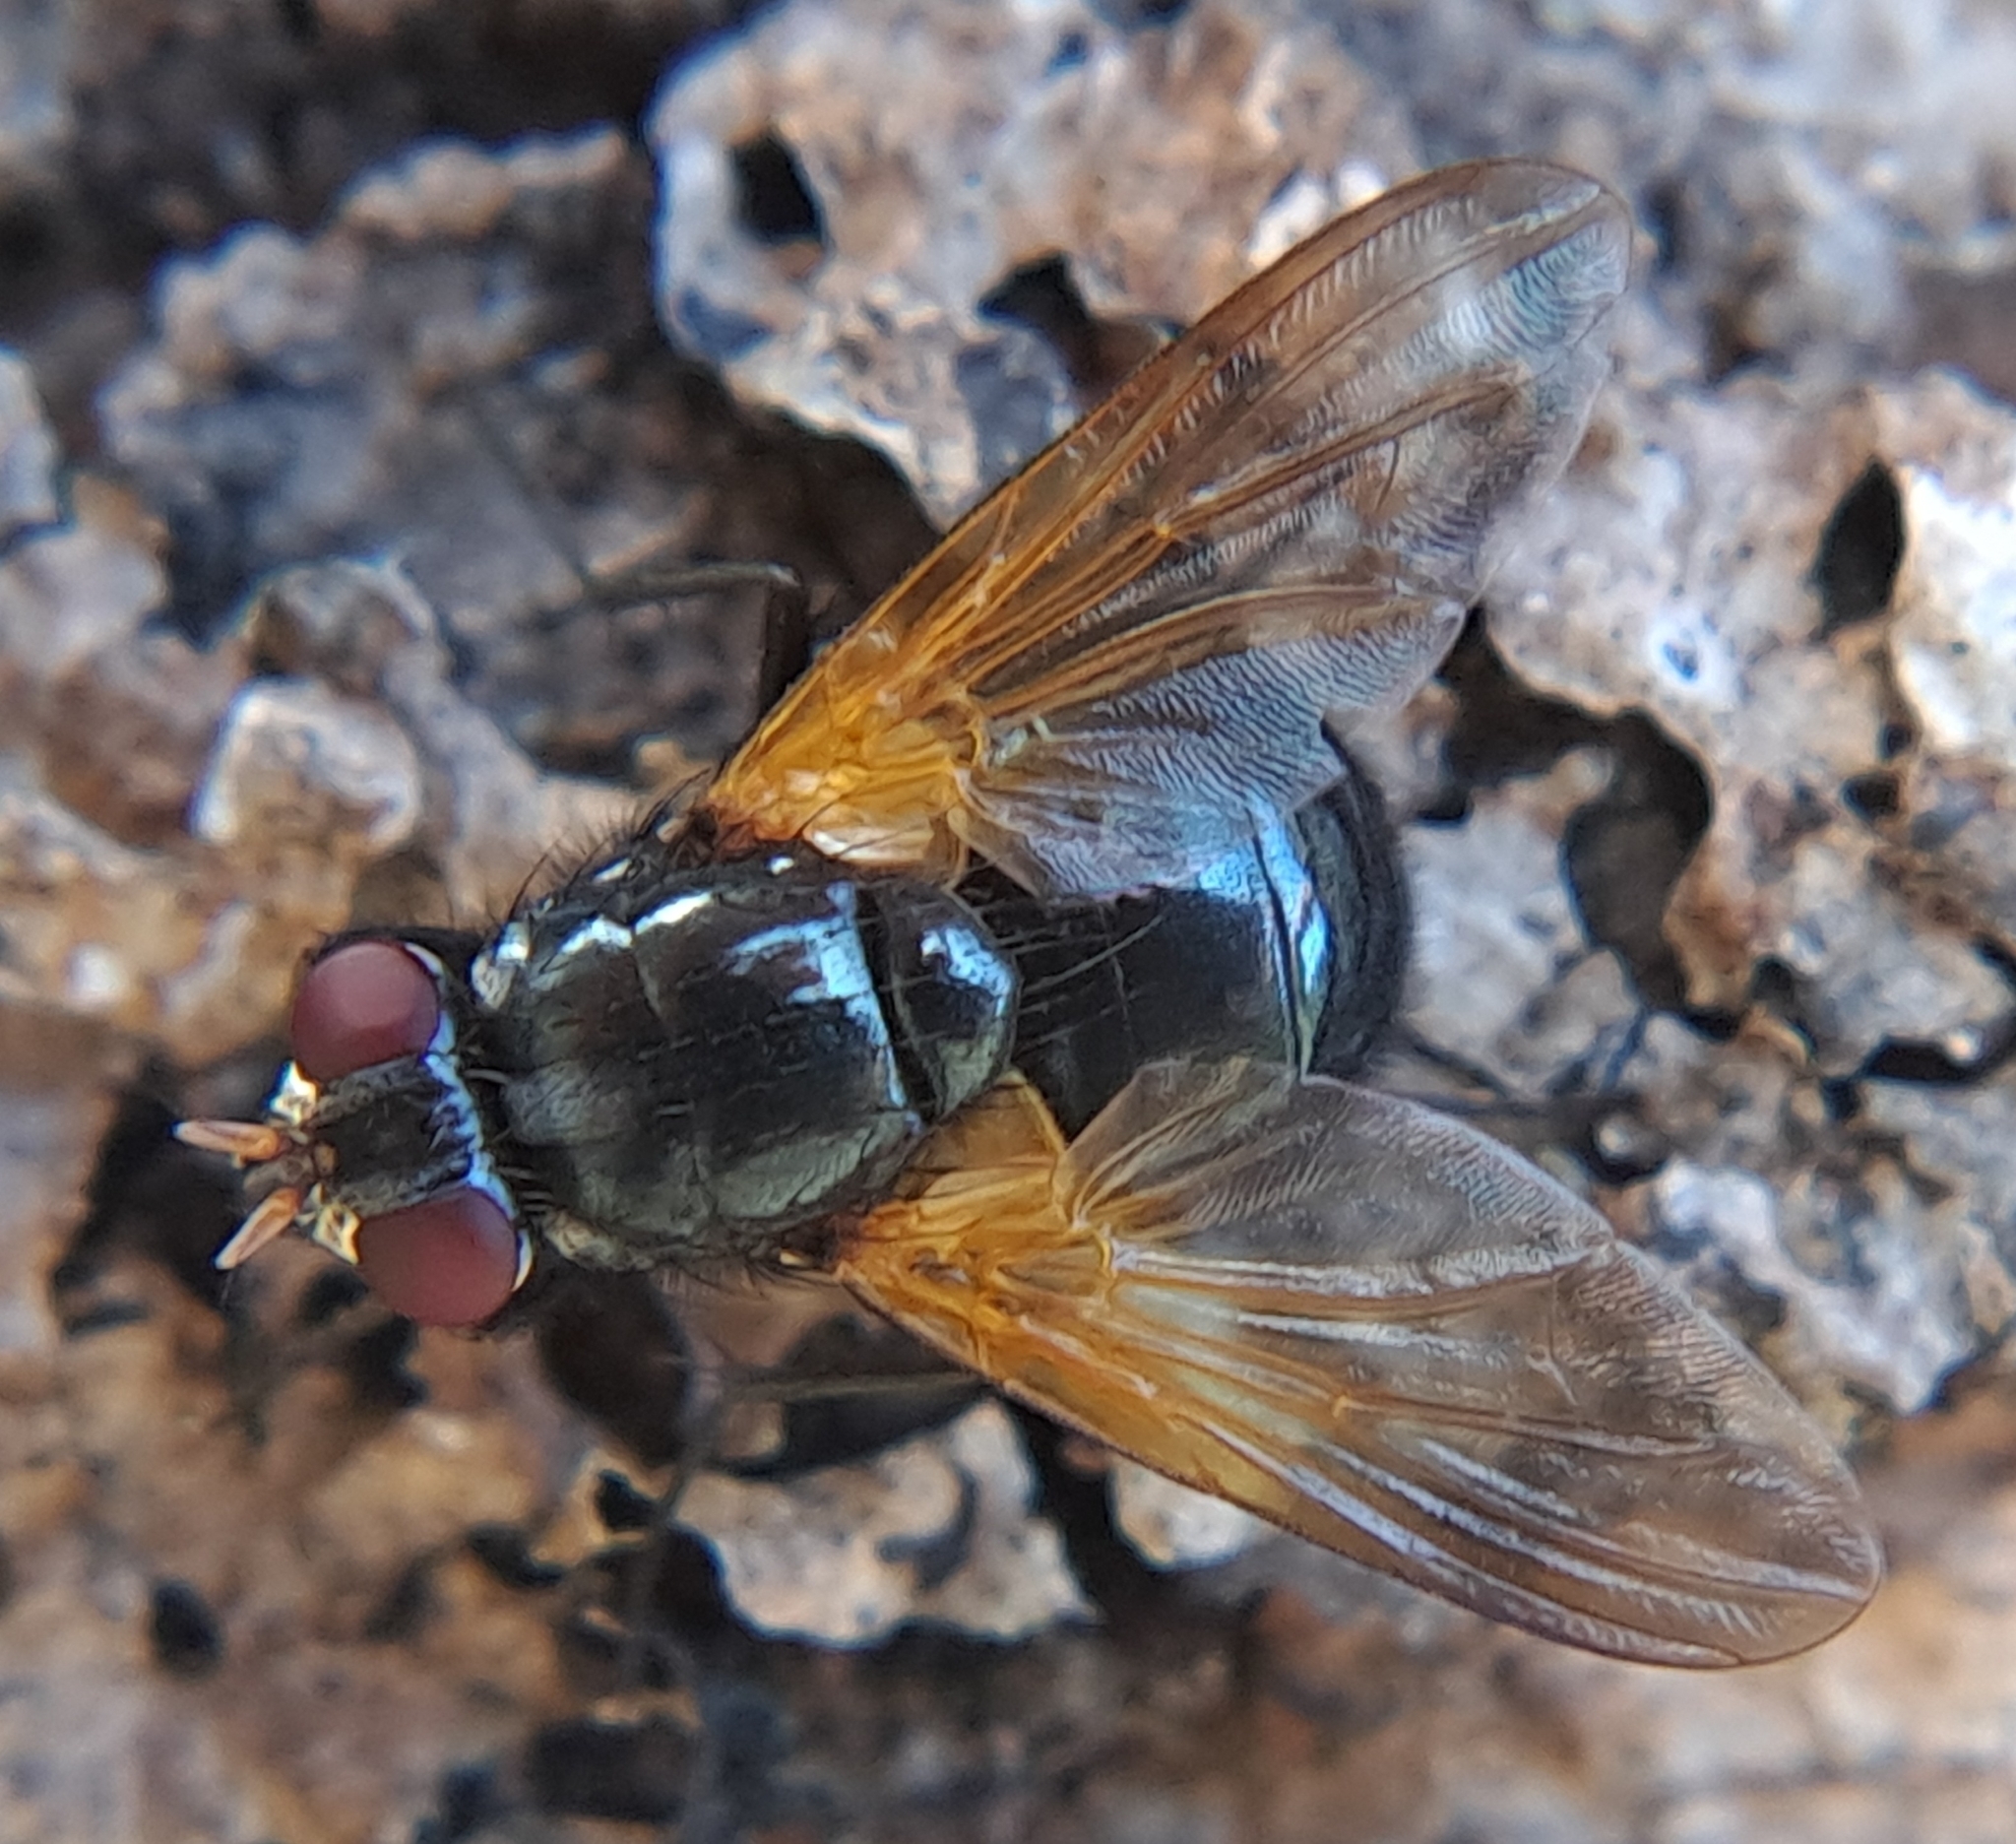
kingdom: Animalia
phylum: Arthropoda
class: Insecta
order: Diptera
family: Muscidae
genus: Mesembrina
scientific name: Mesembrina latreillii
